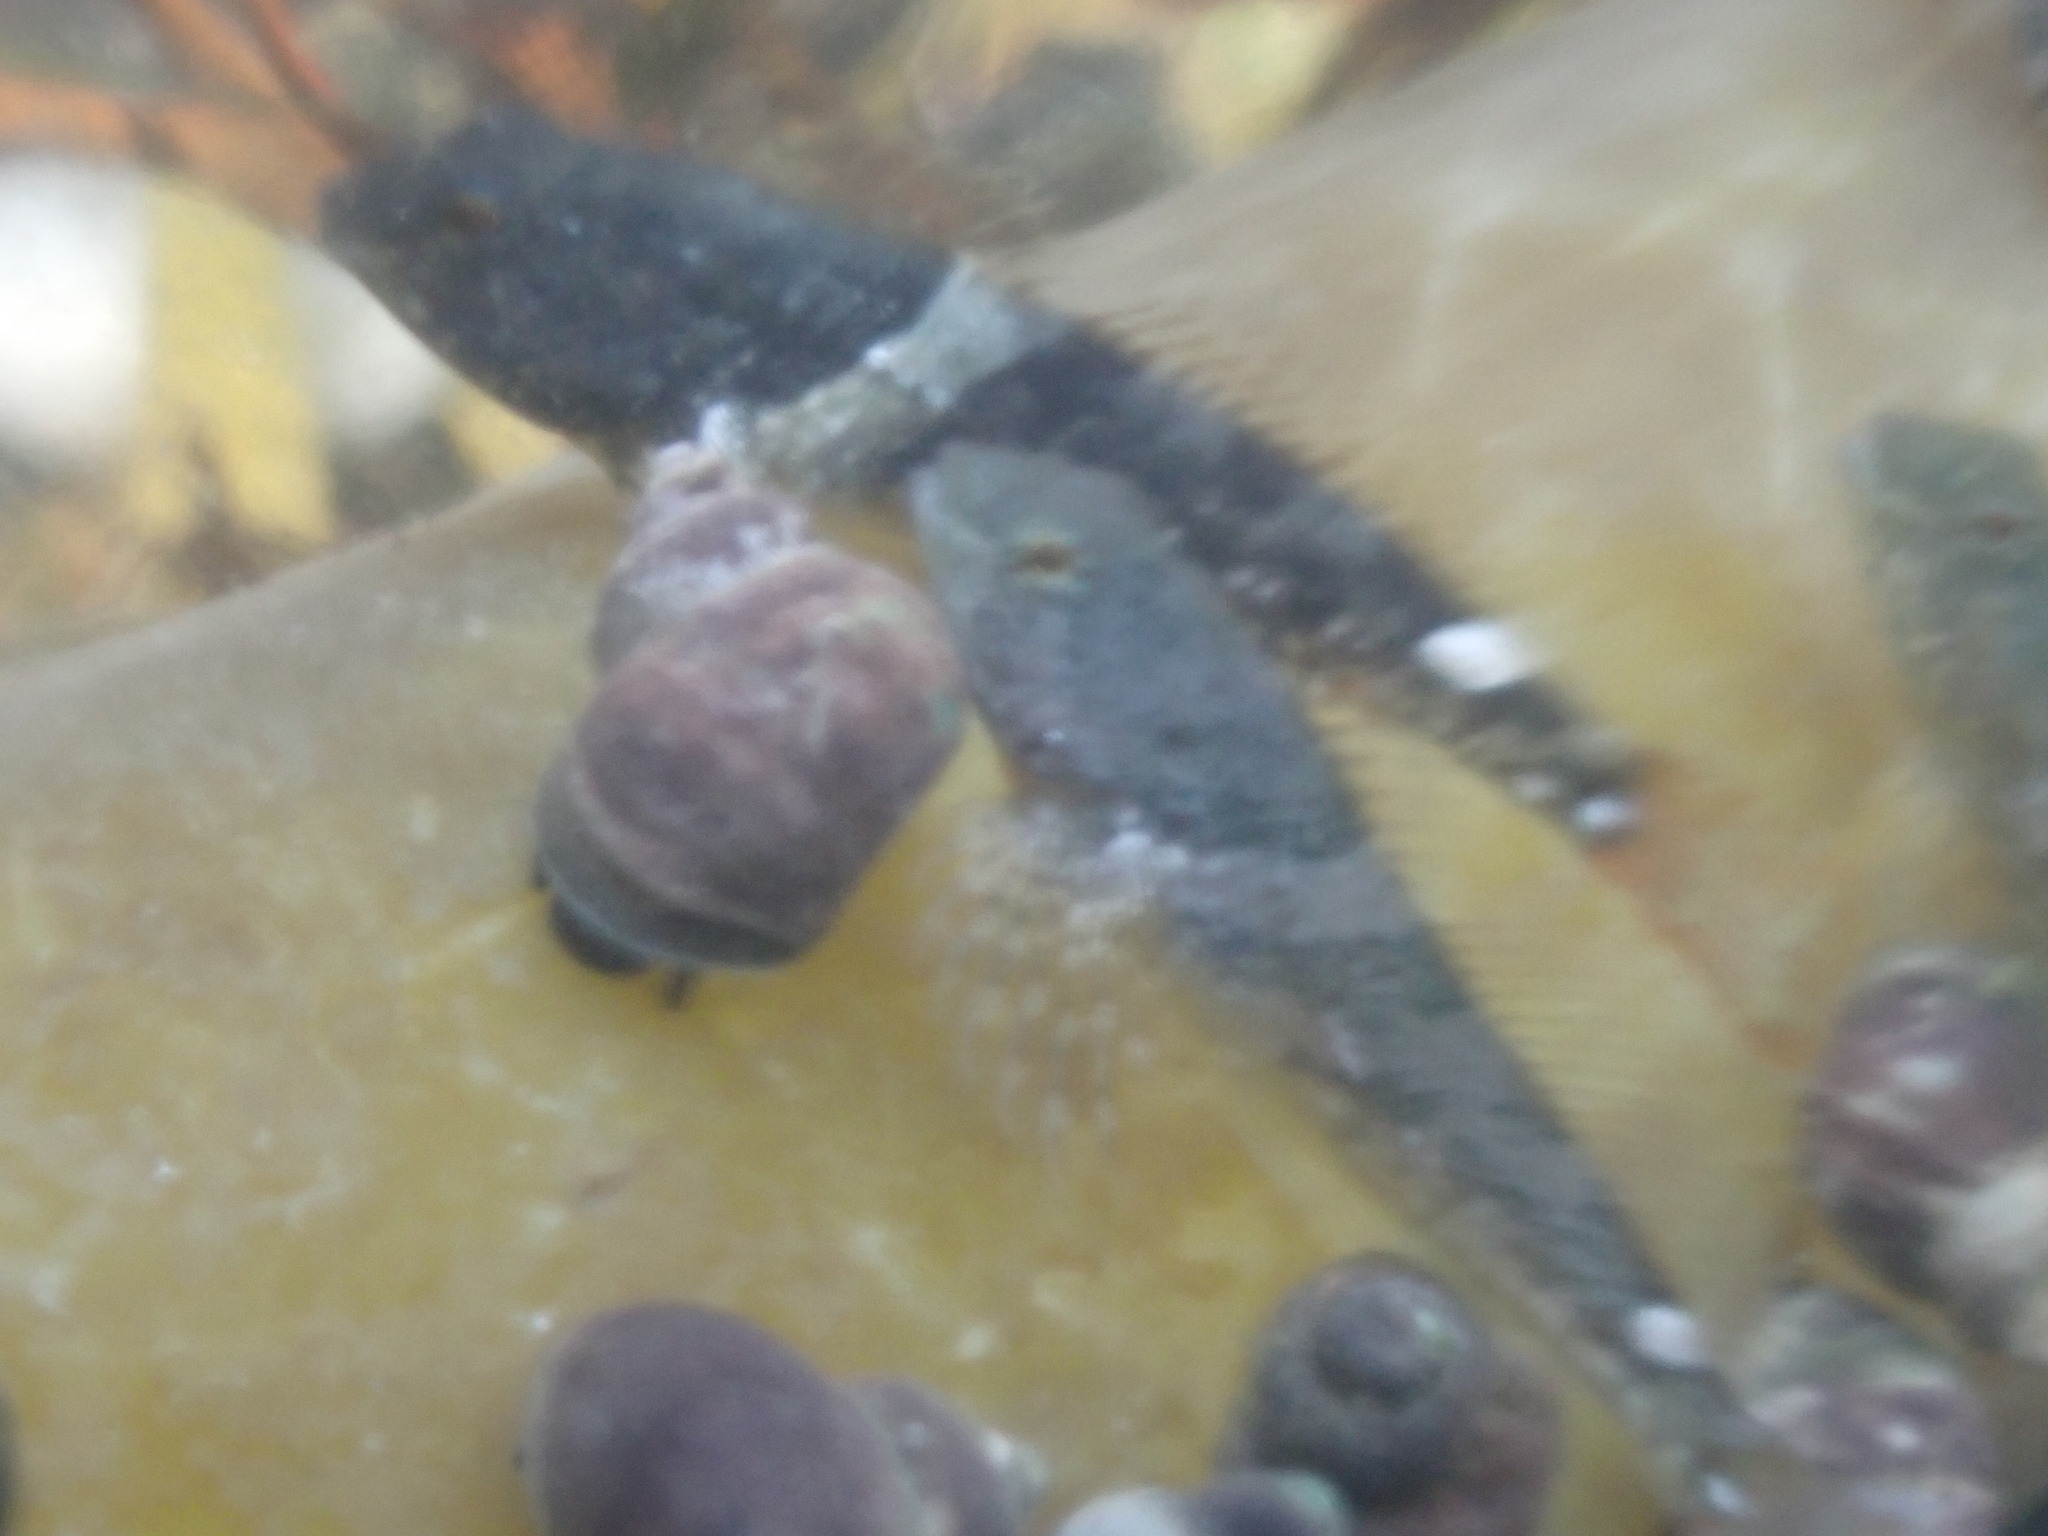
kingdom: Animalia
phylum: Chordata
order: Scorpaeniformes
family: Cottidae
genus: Oligocottus
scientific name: Oligocottus maculosus
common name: Tidepool sculpin
